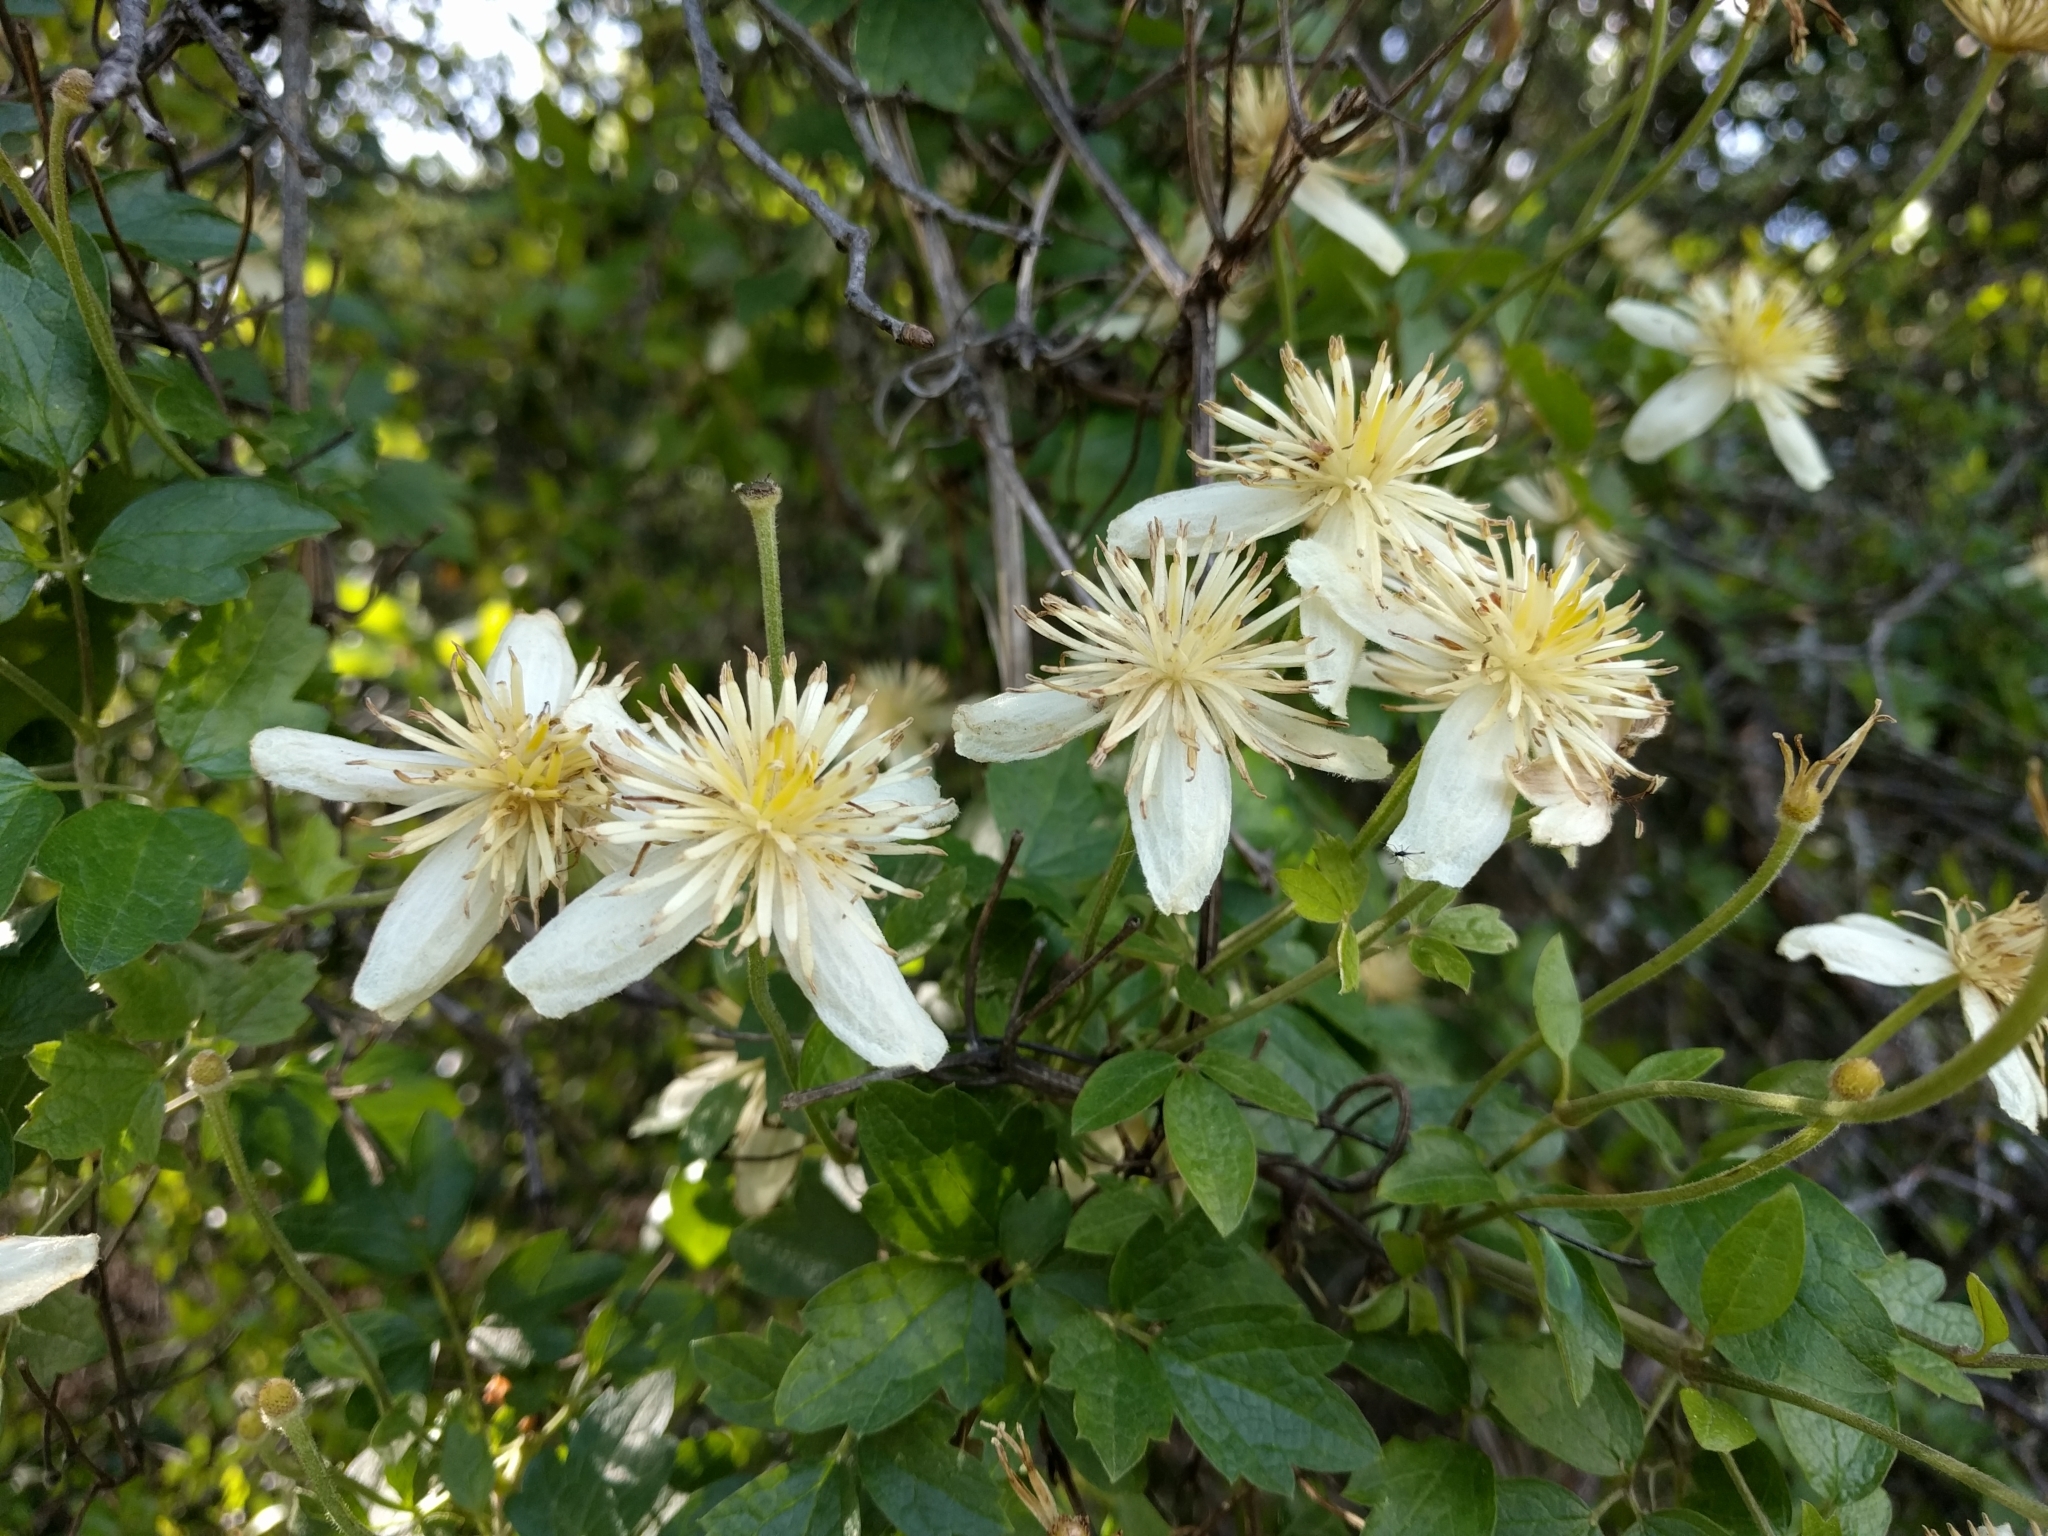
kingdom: Plantae
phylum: Tracheophyta
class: Magnoliopsida
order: Ranunculales
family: Ranunculaceae
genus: Clematis
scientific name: Clematis lasiantha
